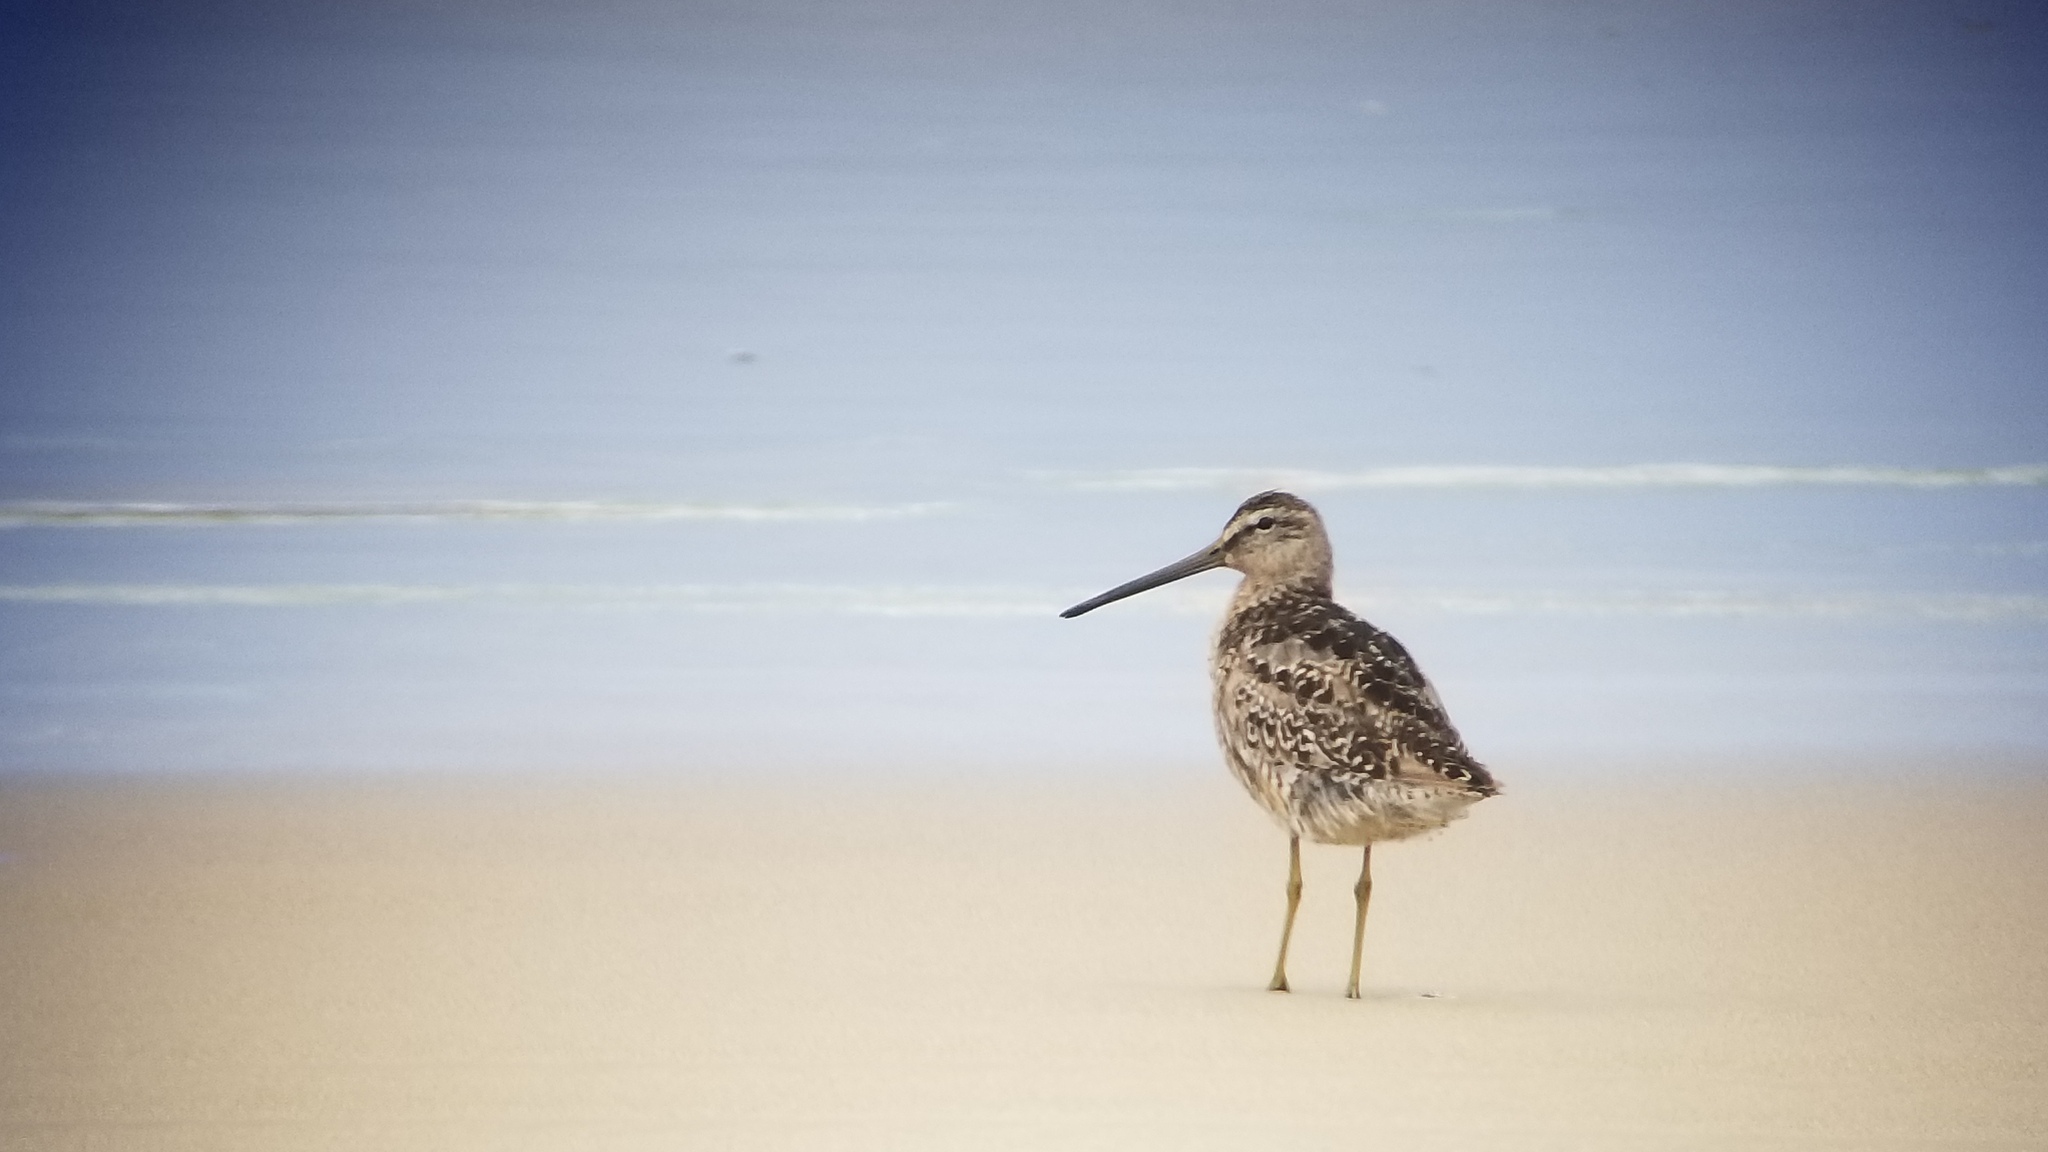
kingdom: Animalia
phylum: Chordata
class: Aves
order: Charadriiformes
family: Scolopacidae
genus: Limnodromus
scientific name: Limnodromus griseus
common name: Short-billed dowitcher
